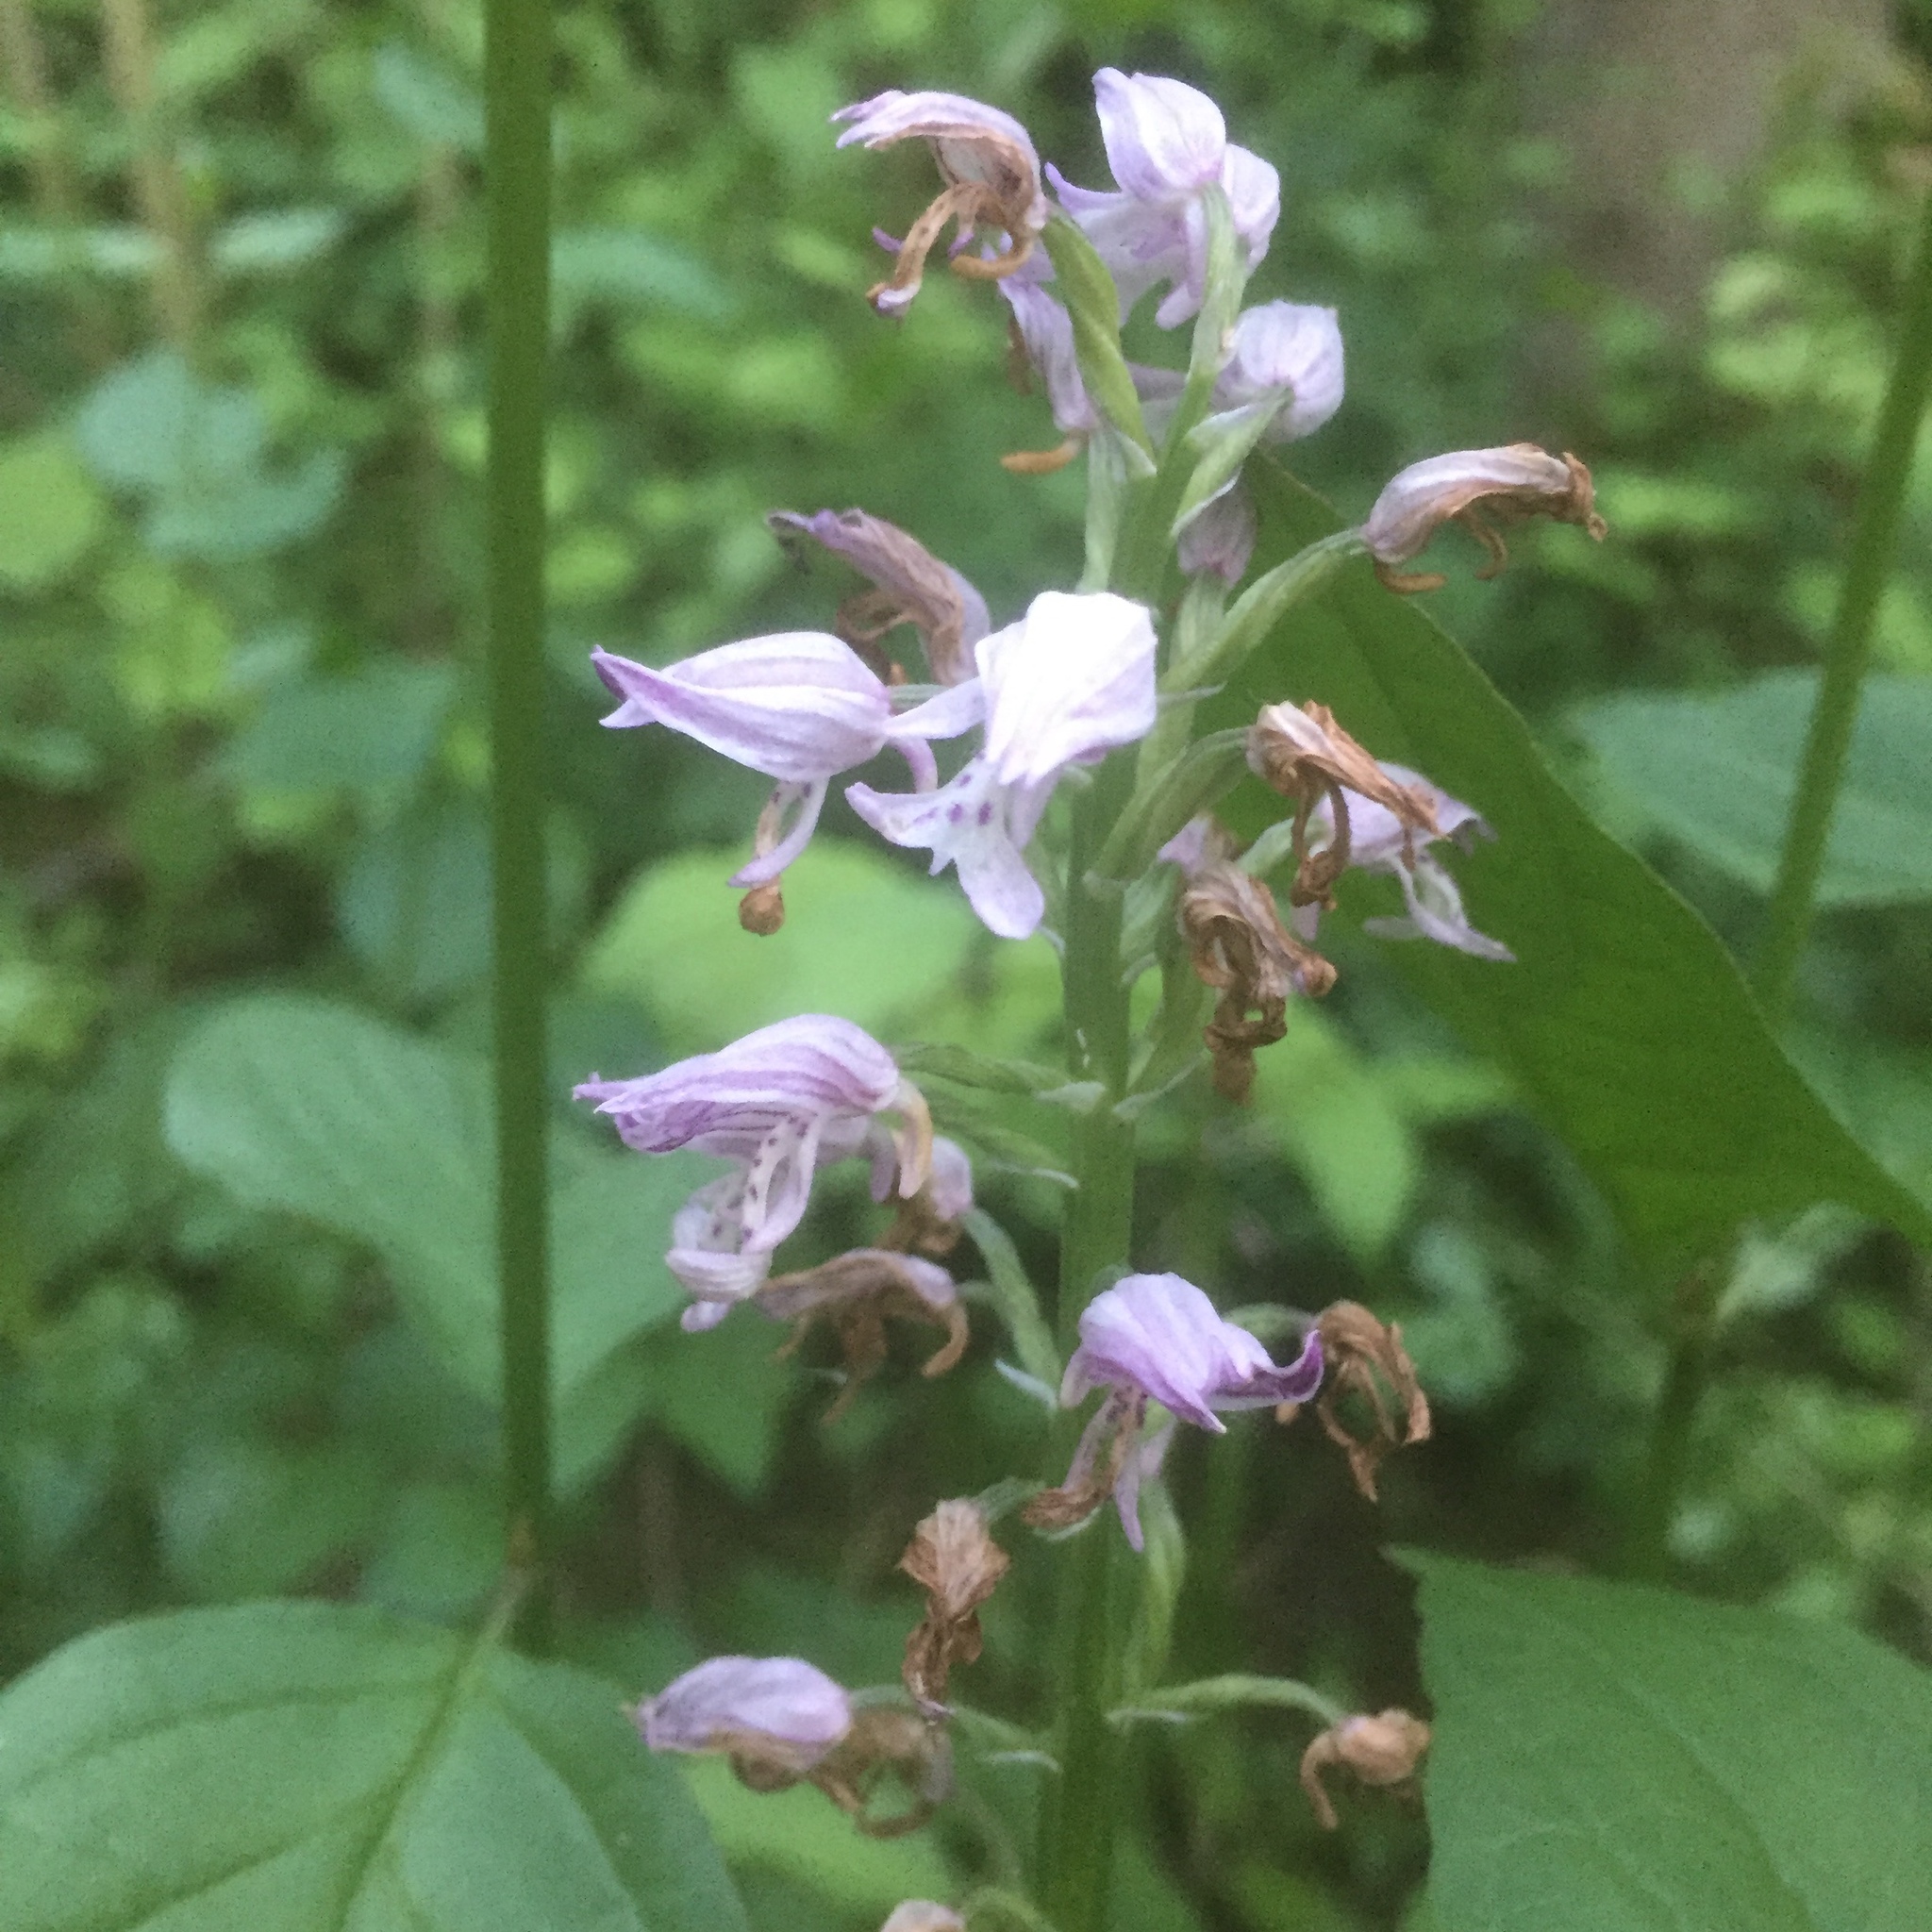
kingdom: Plantae
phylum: Tracheophyta
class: Liliopsida
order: Asparagales
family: Orchidaceae
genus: Orchis
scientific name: Orchis militaris
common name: Military orchid
